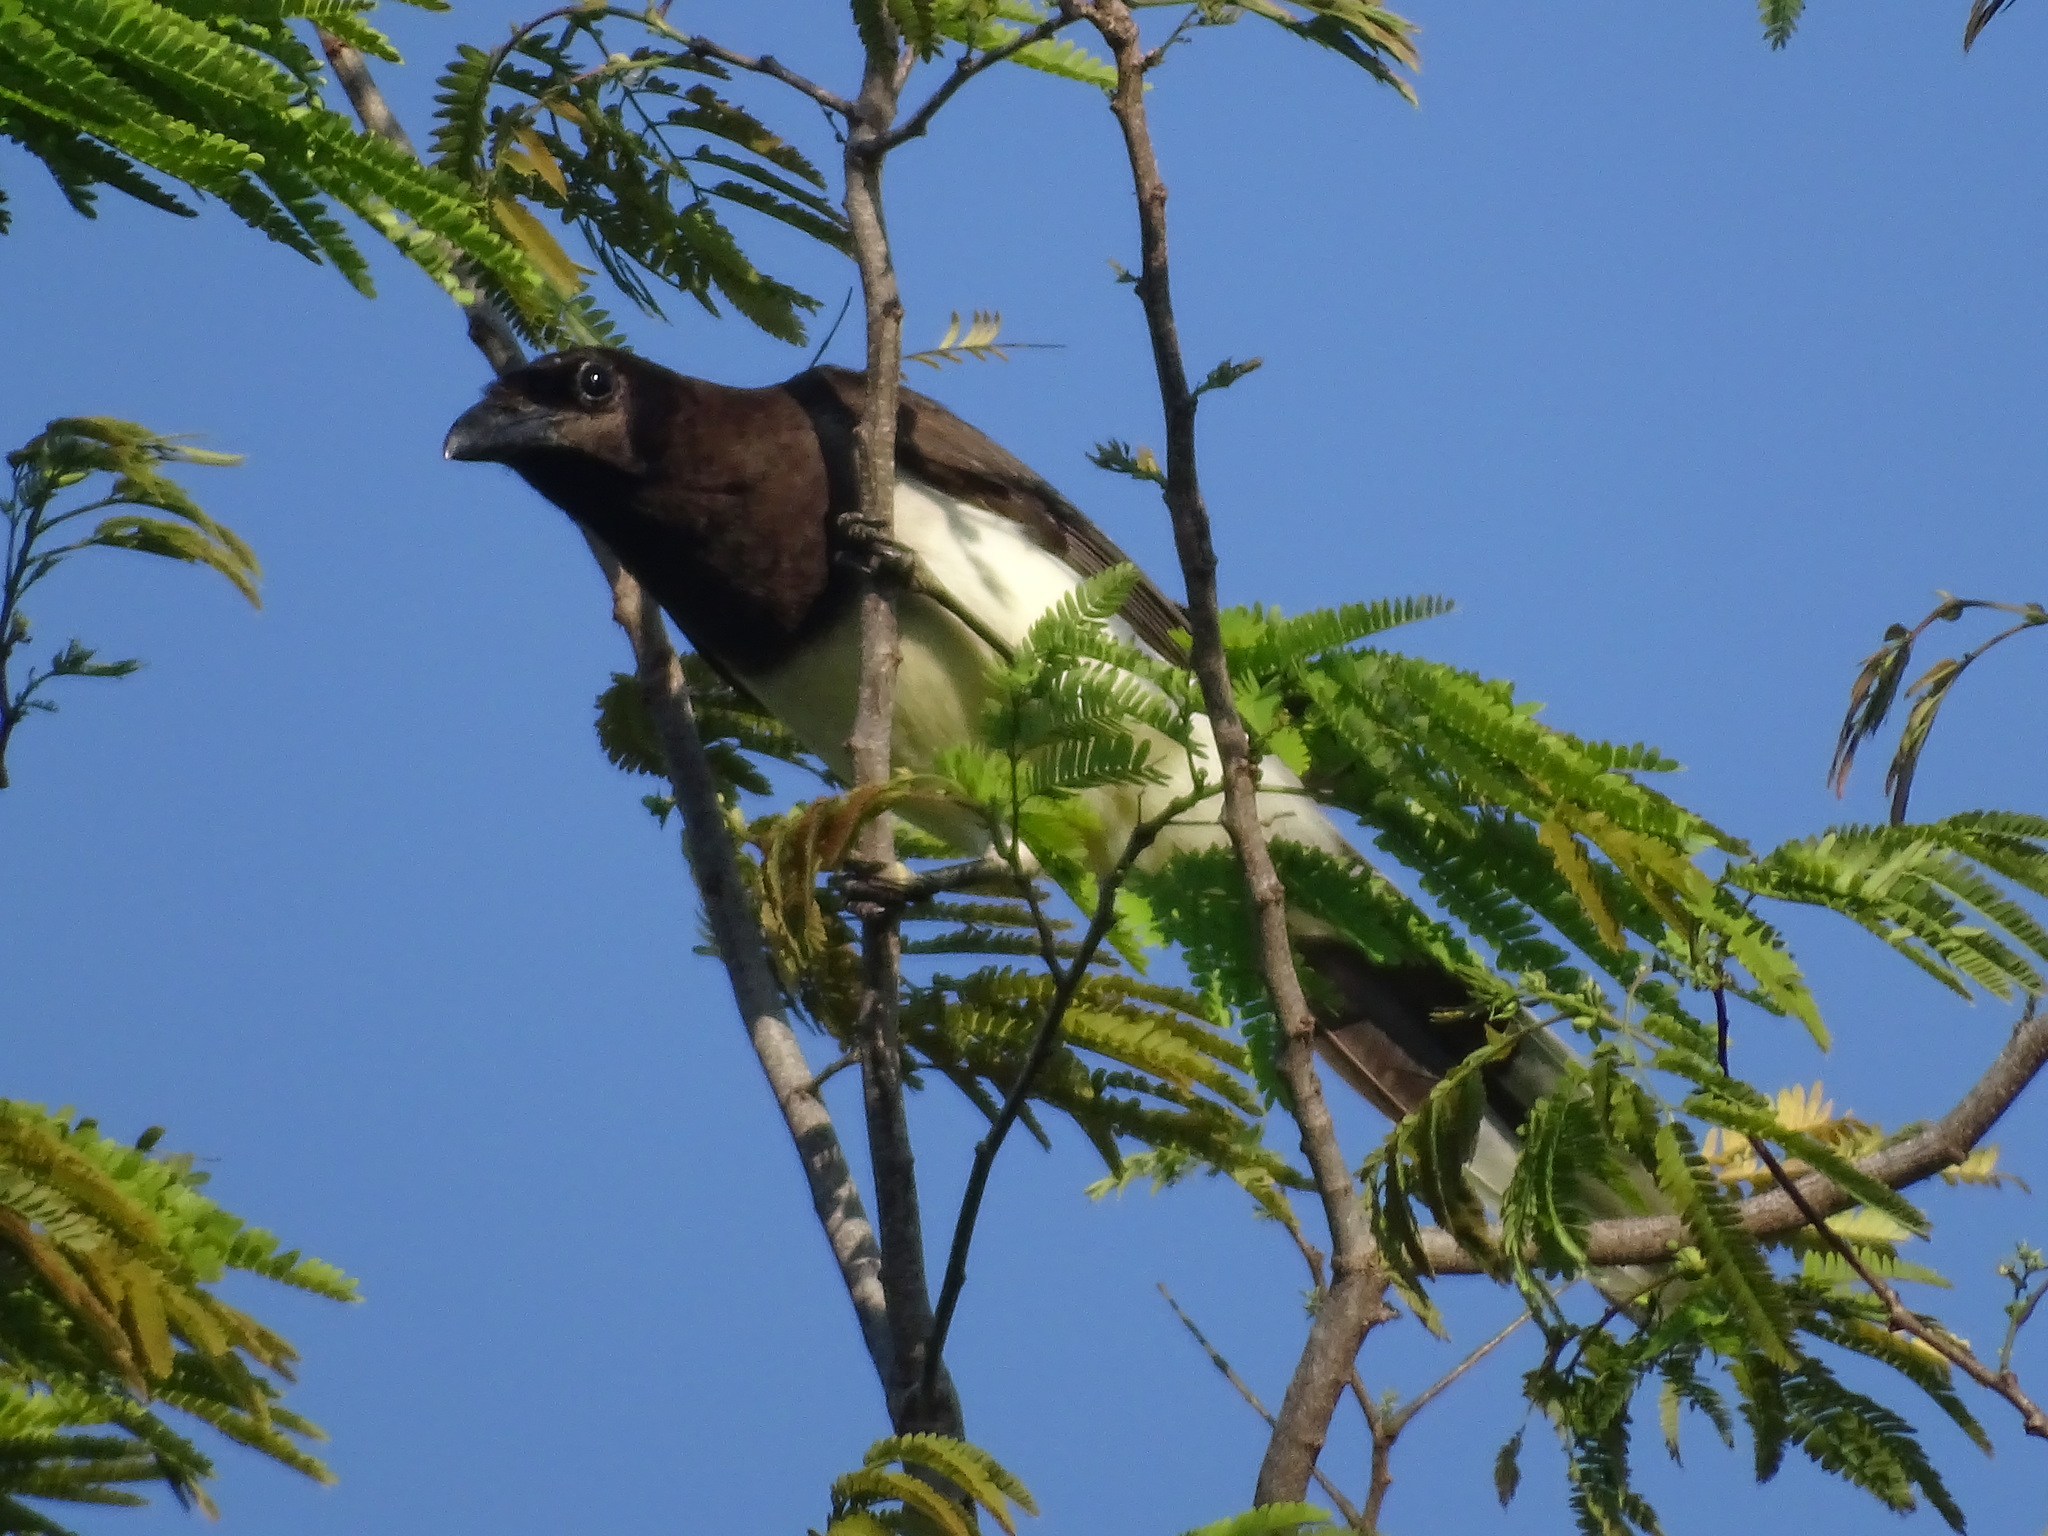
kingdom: Animalia
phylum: Chordata
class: Aves
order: Passeriformes
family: Corvidae
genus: Psilorhinus
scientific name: Psilorhinus morio
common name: Brown jay
